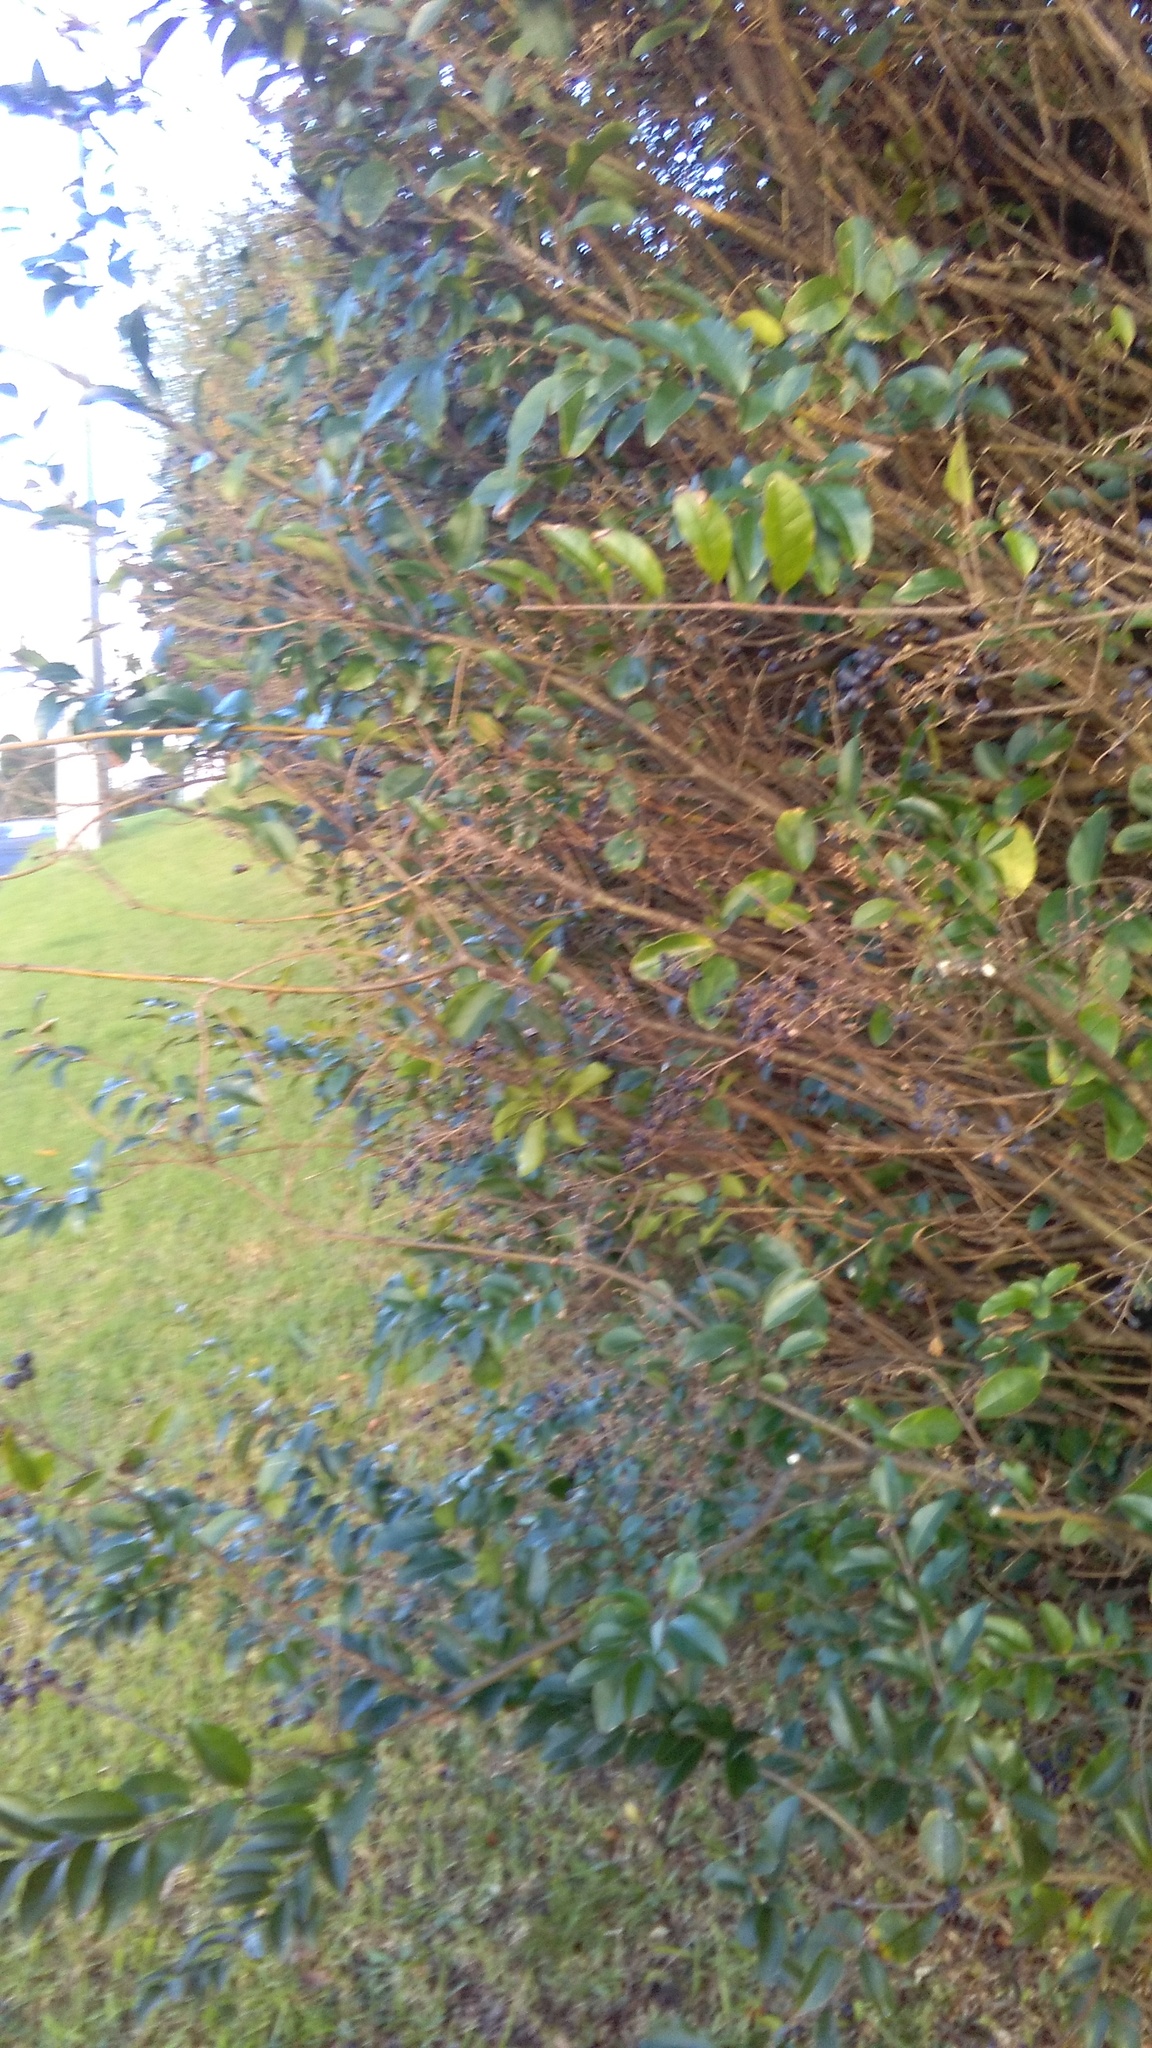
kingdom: Plantae
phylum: Tracheophyta
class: Magnoliopsida
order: Lamiales
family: Oleaceae
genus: Ligustrum
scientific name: Ligustrum sinense
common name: Chinese privet
